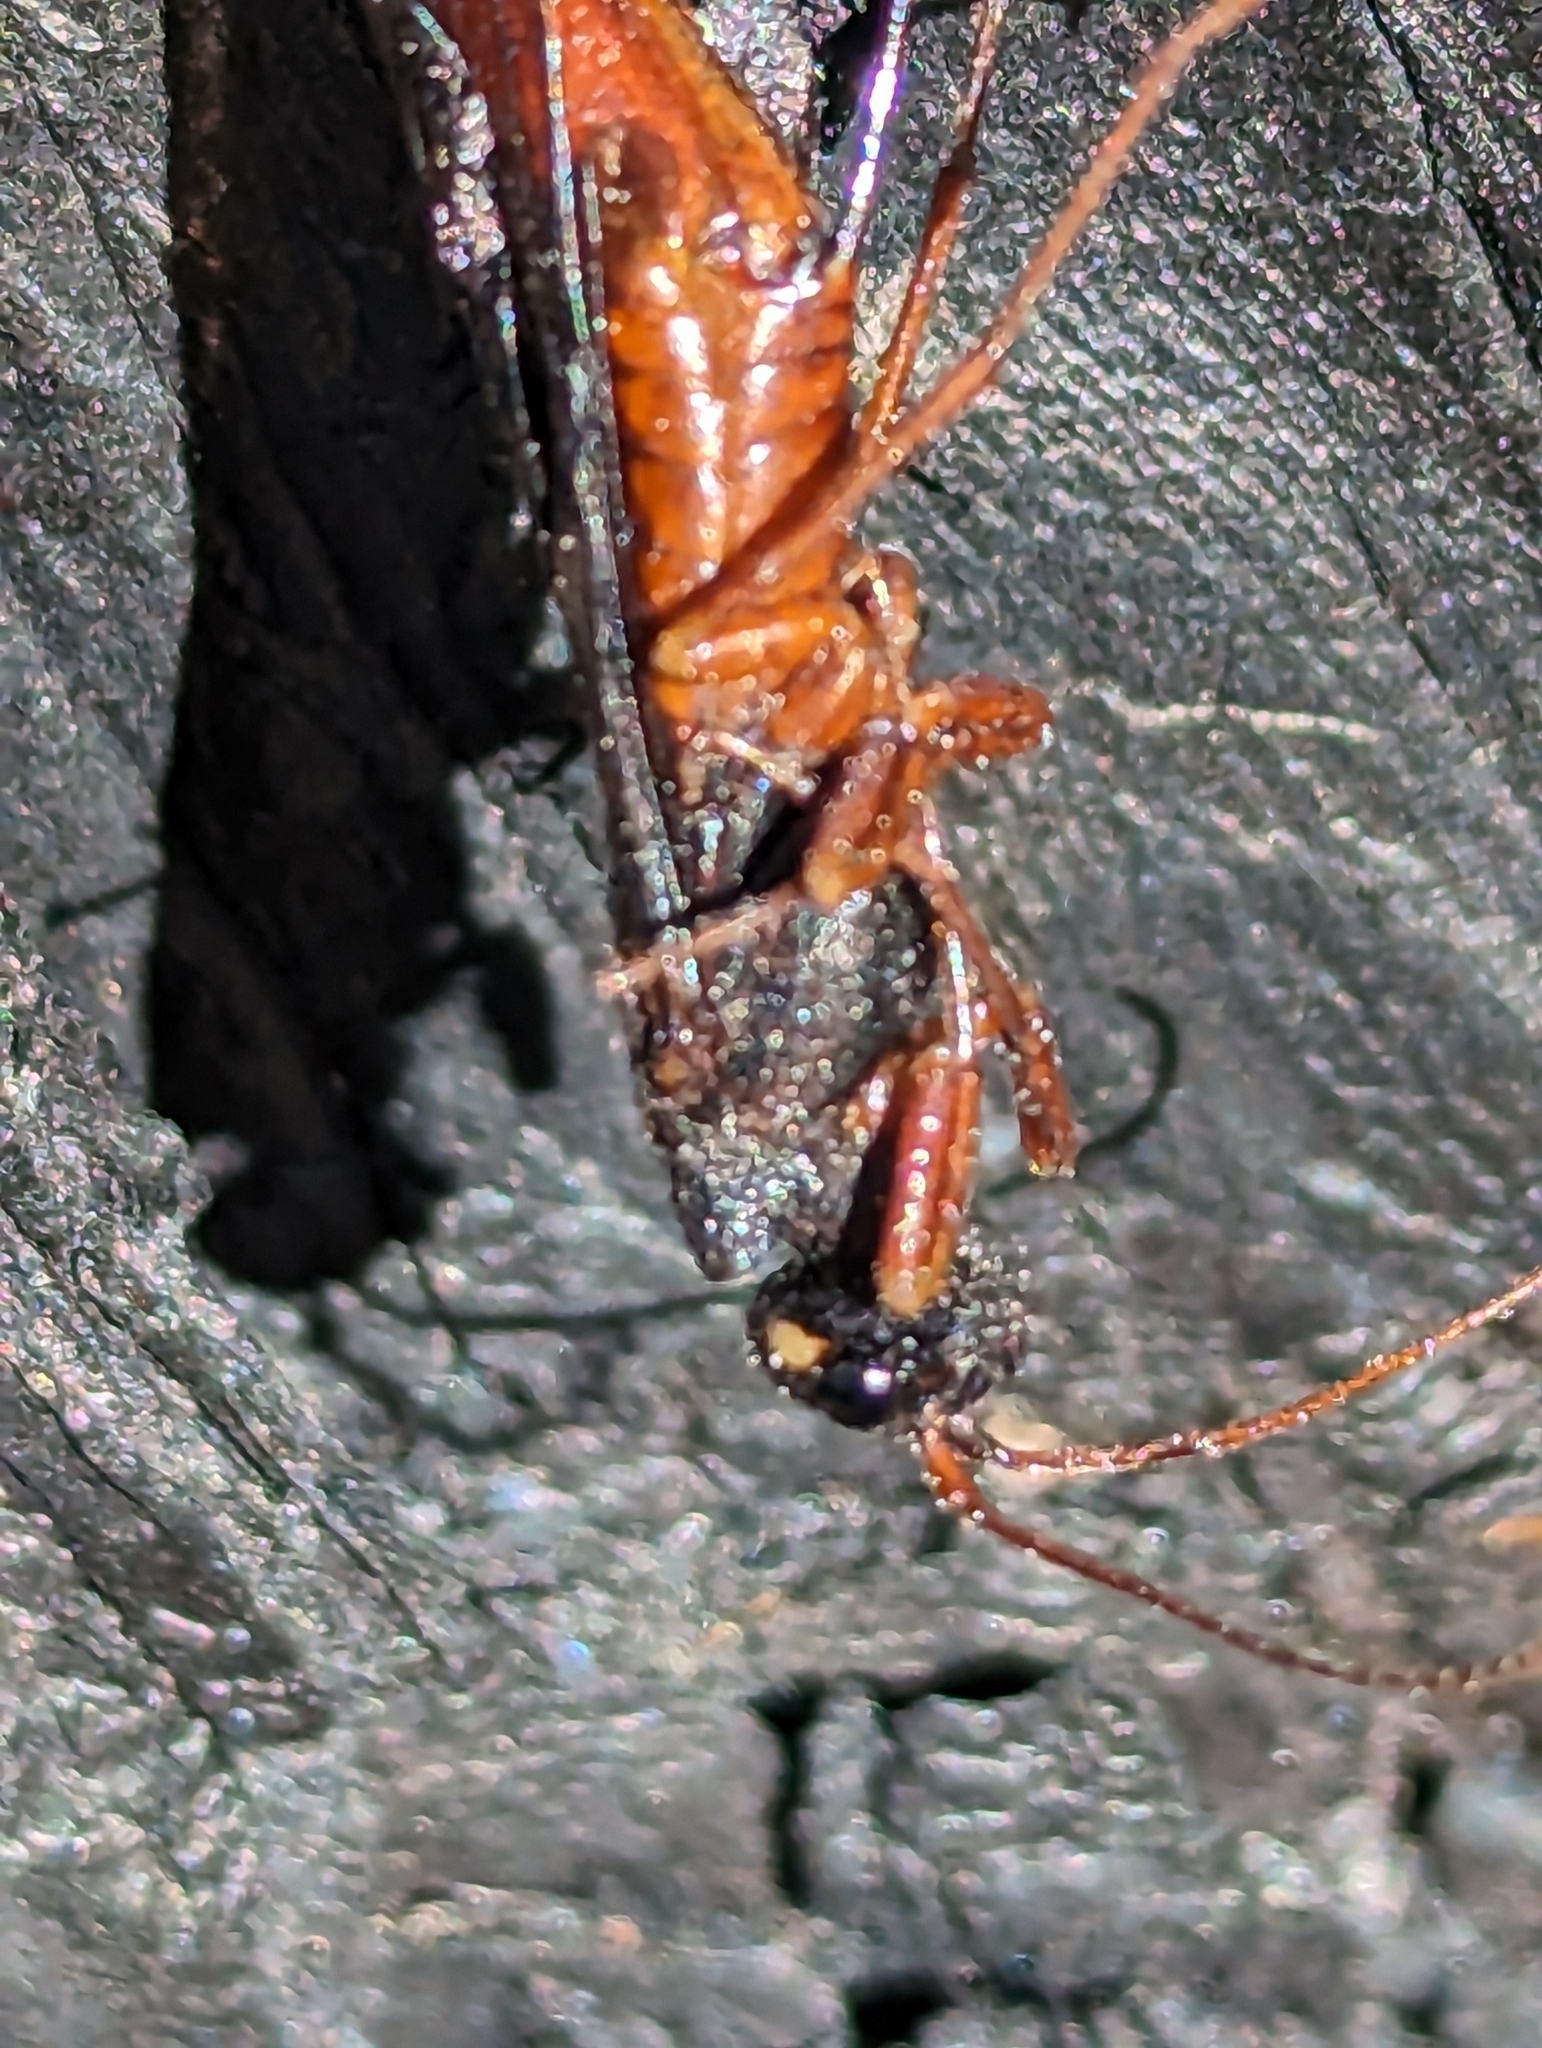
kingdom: Animalia
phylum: Arthropoda
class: Insecta
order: Hymenoptera
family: Siricidae
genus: Xeris
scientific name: Xeris indecisus
